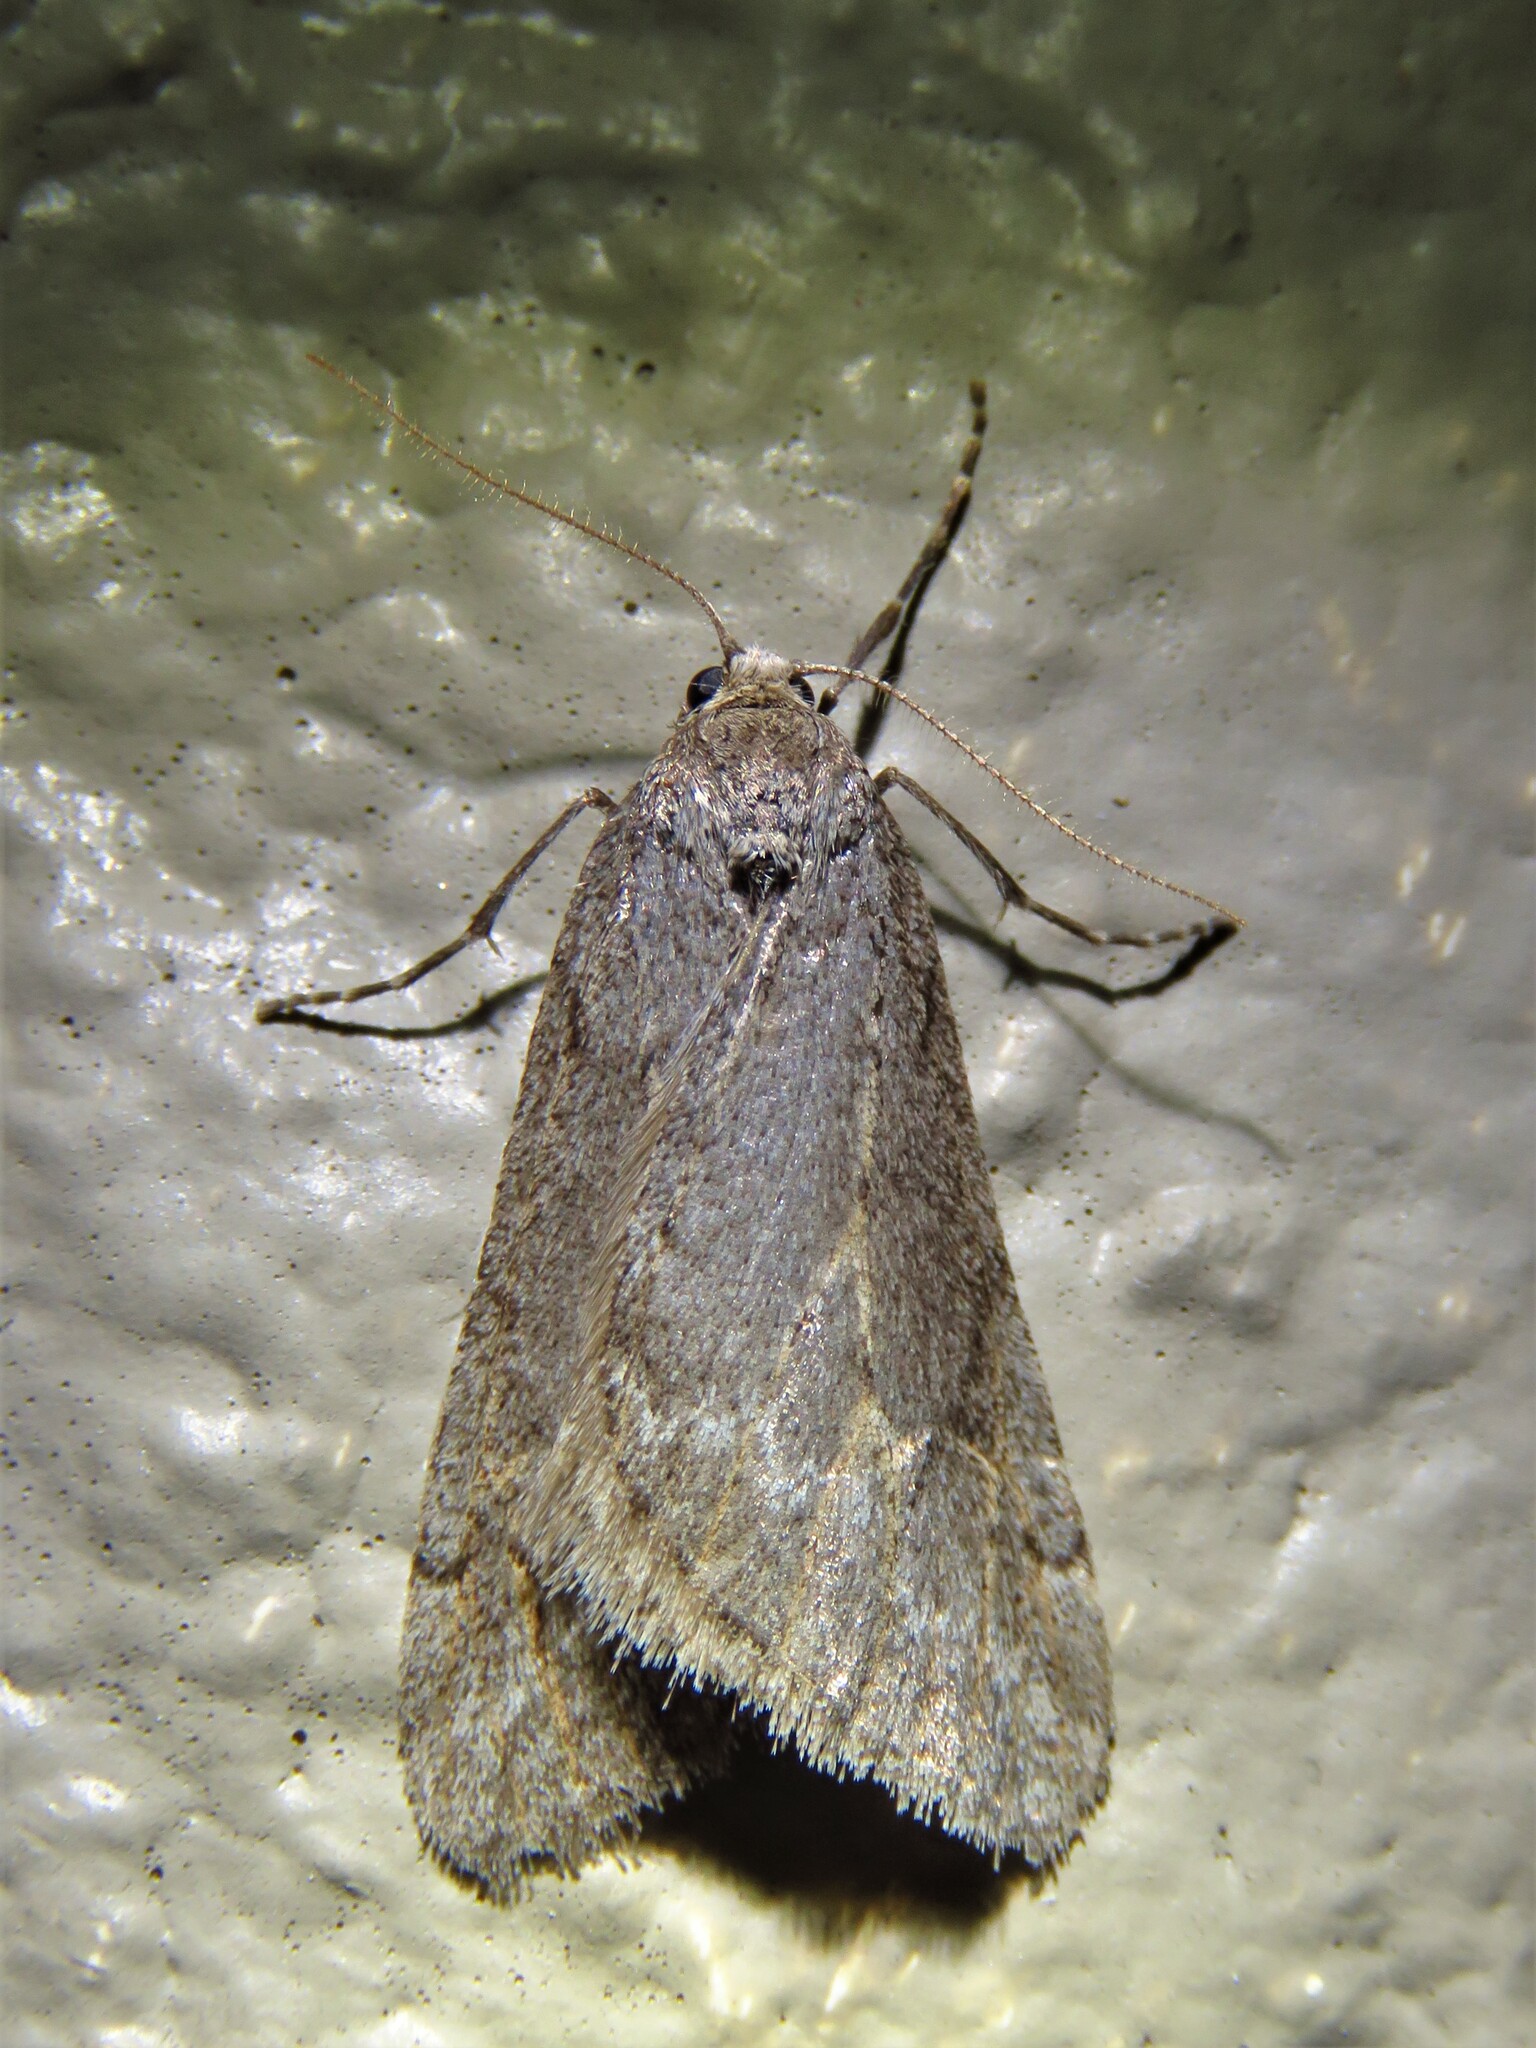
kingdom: Animalia
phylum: Arthropoda
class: Insecta
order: Lepidoptera
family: Geometridae
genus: Paleacrita
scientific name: Paleacrita vernata
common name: Spring cankerworm
